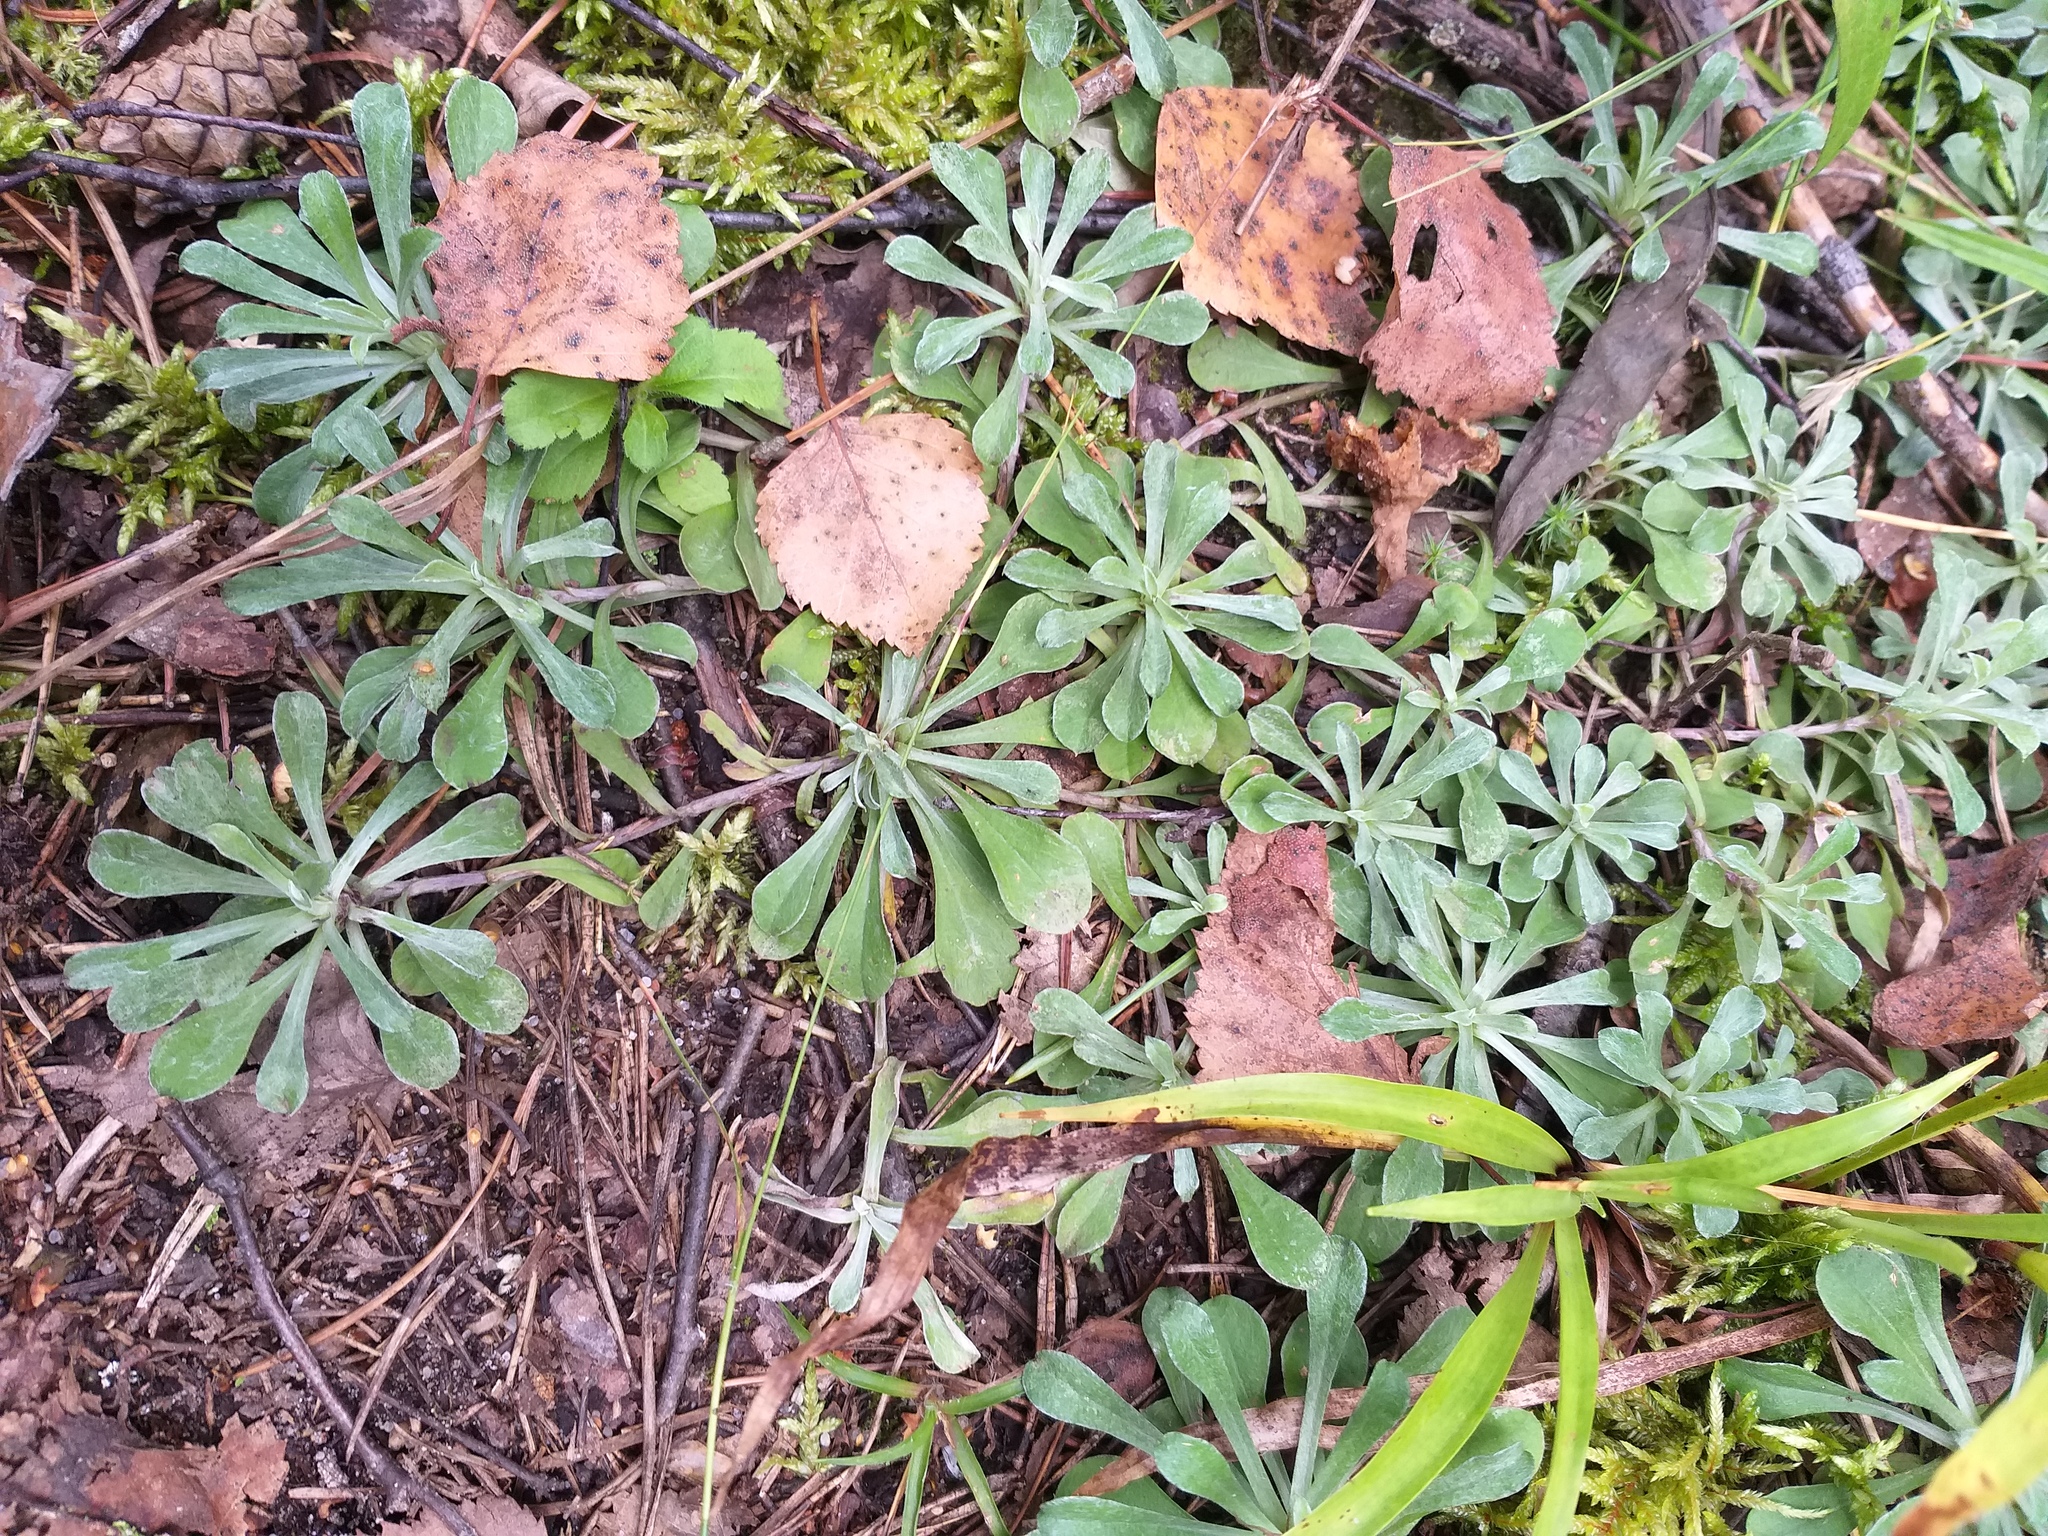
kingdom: Plantae
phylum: Tracheophyta
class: Magnoliopsida
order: Asterales
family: Asteraceae
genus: Antennaria
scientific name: Antennaria dioica
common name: Mountain everlasting
